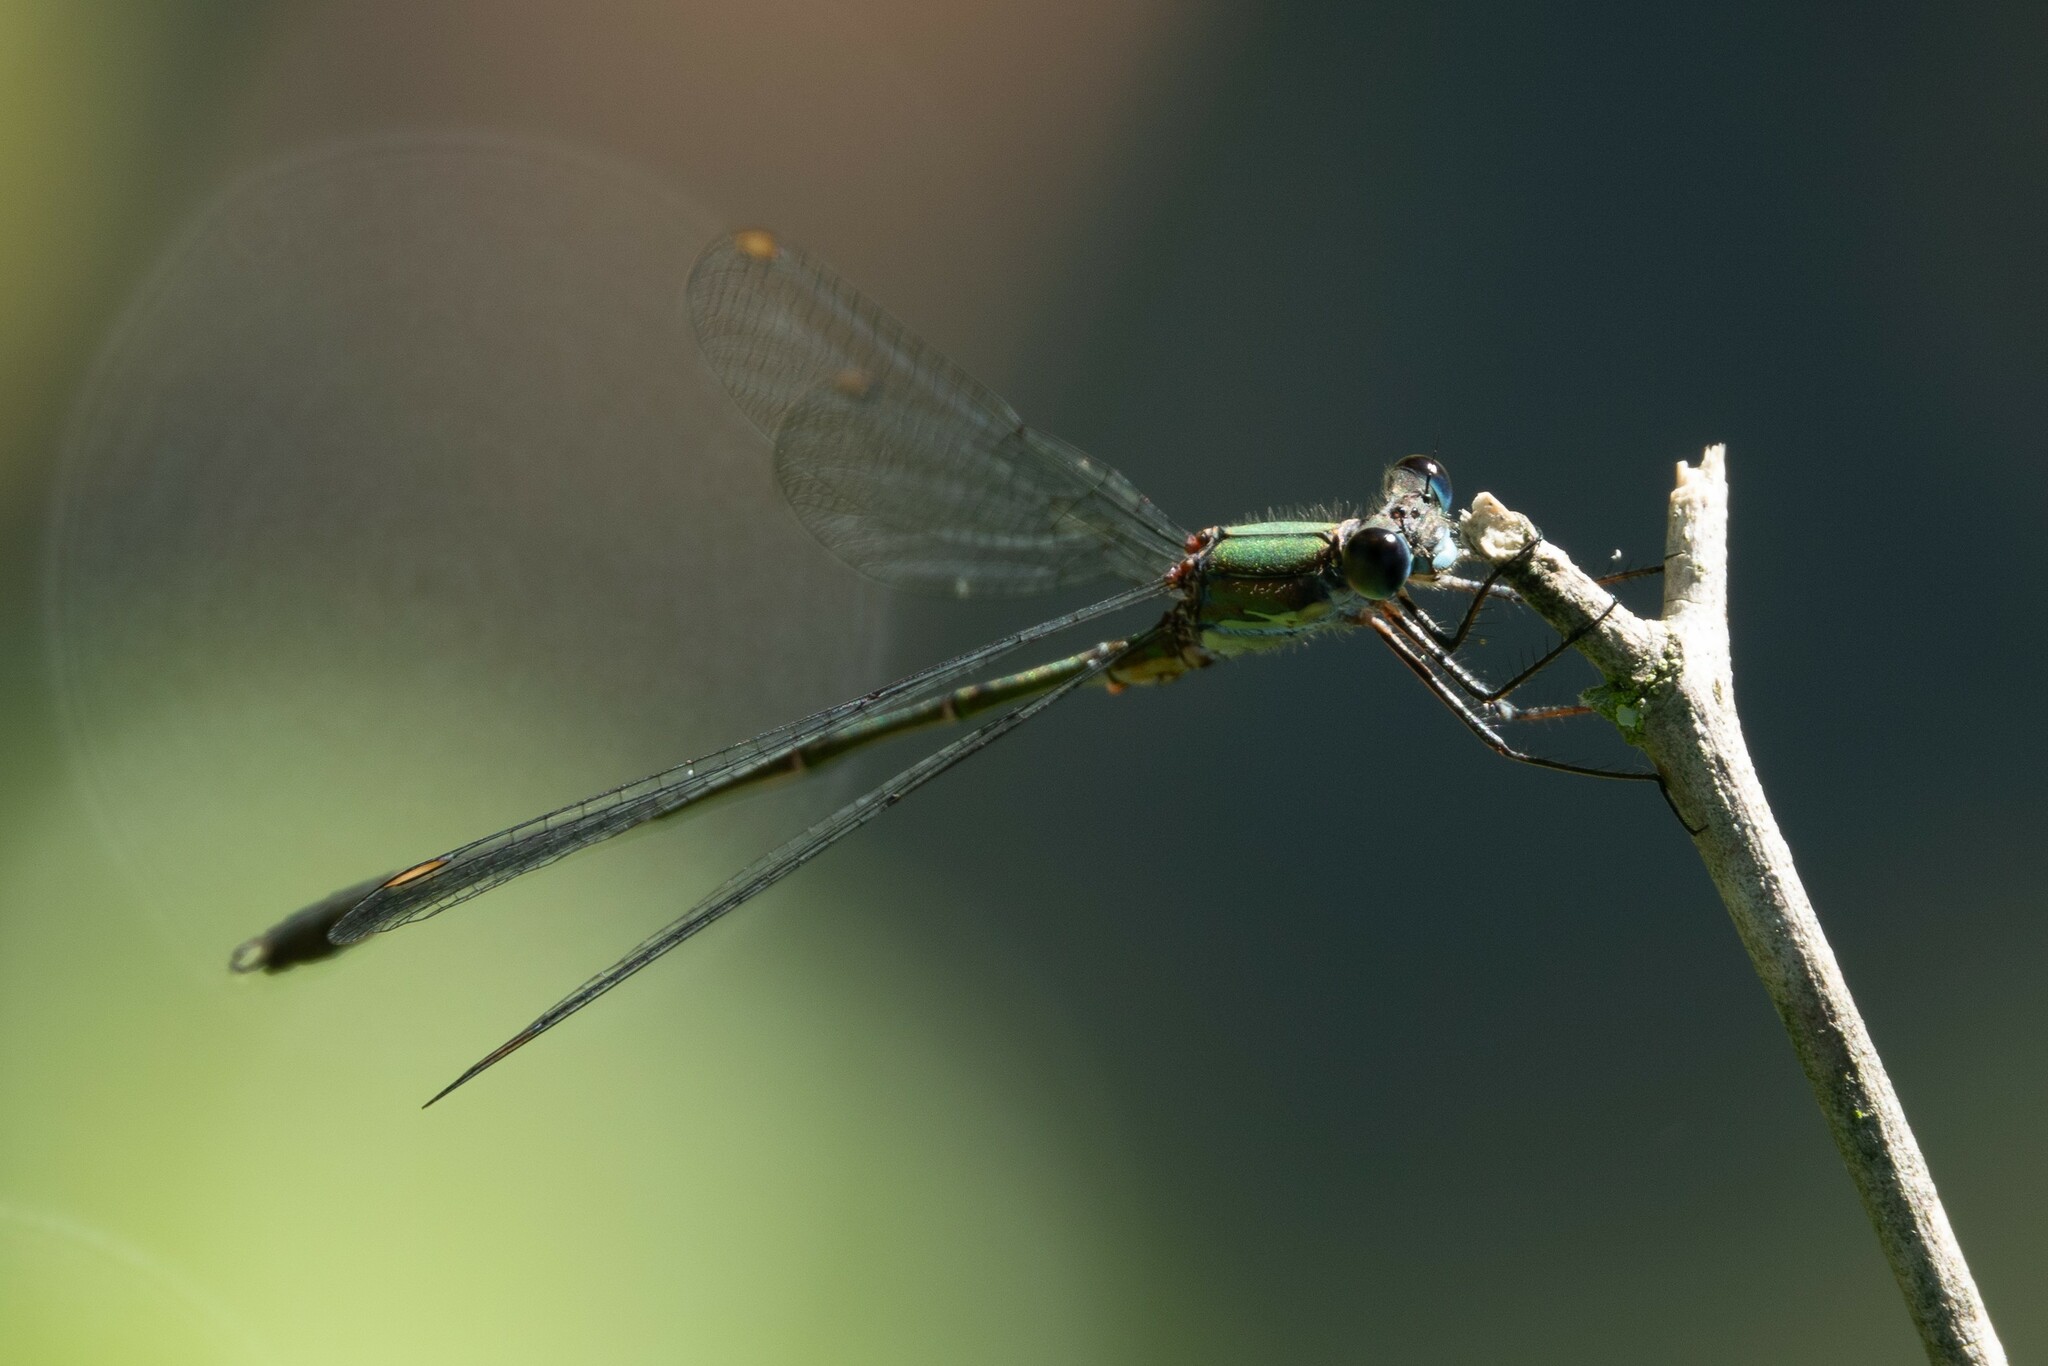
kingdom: Animalia
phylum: Arthropoda
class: Insecta
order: Odonata
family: Lestidae
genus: Chalcolestes
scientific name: Chalcolestes viridis
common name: Green emerald damselfly
